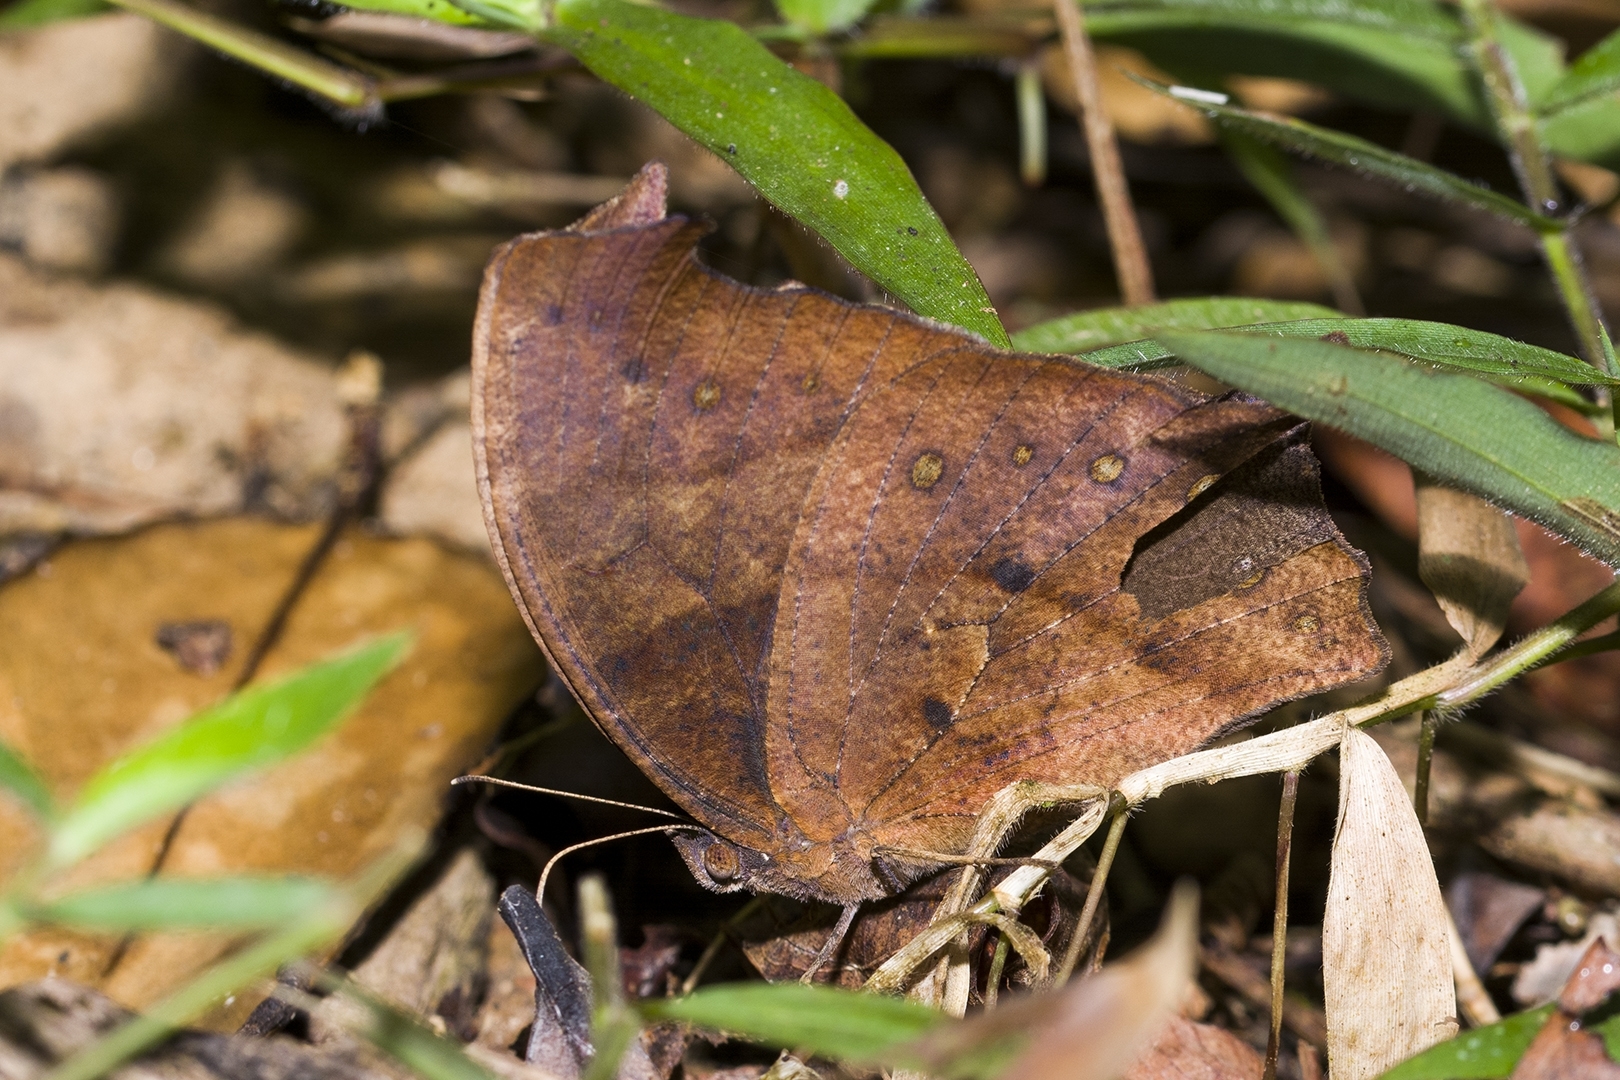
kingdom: Animalia
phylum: Arthropoda
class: Insecta
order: Lepidoptera
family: Nymphalidae
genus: Melanitis
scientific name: Melanitis zitenius
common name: Great evening brown
